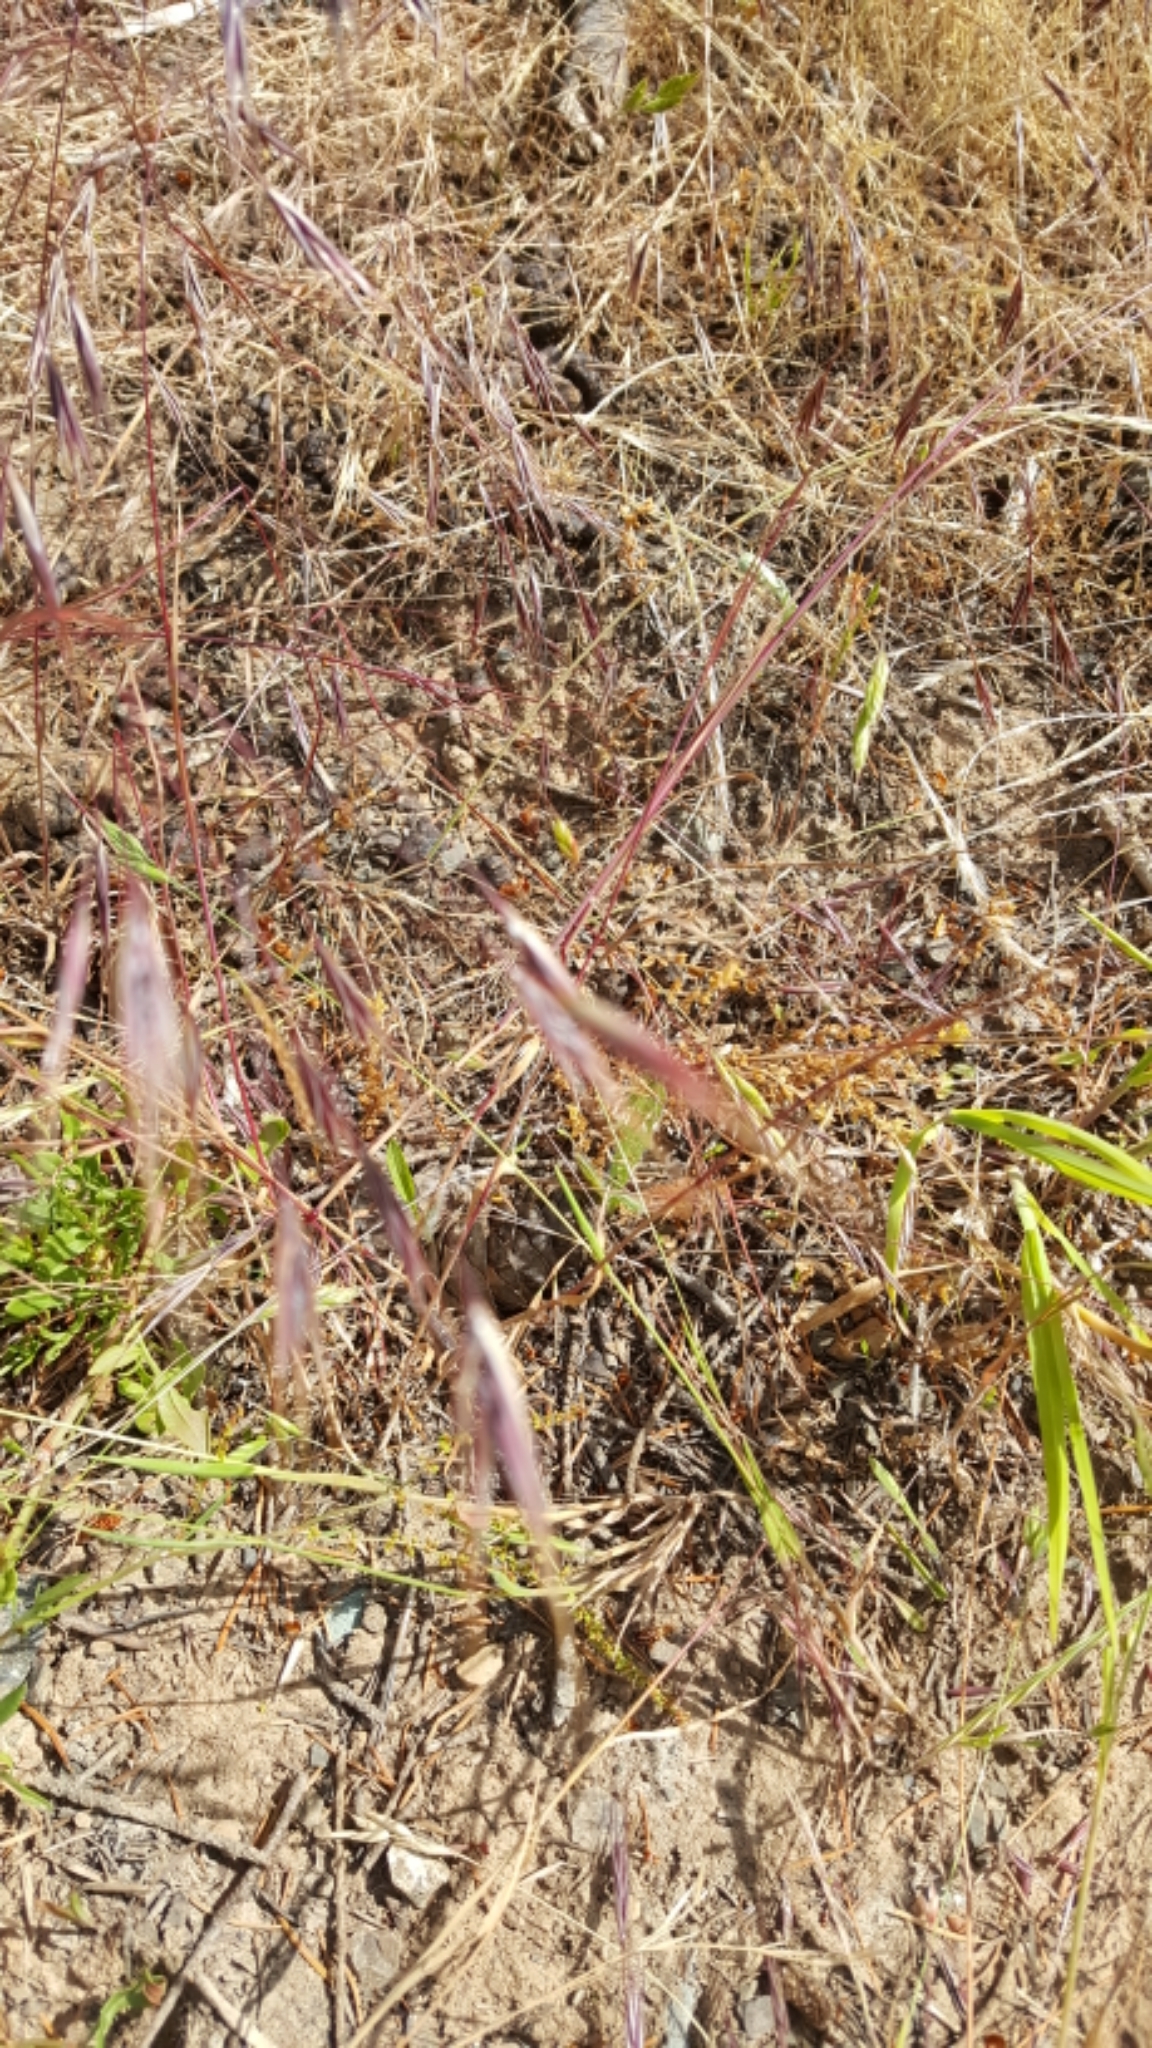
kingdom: Plantae
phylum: Tracheophyta
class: Liliopsida
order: Poales
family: Poaceae
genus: Bromus
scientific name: Bromus tectorum
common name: Cheatgrass
